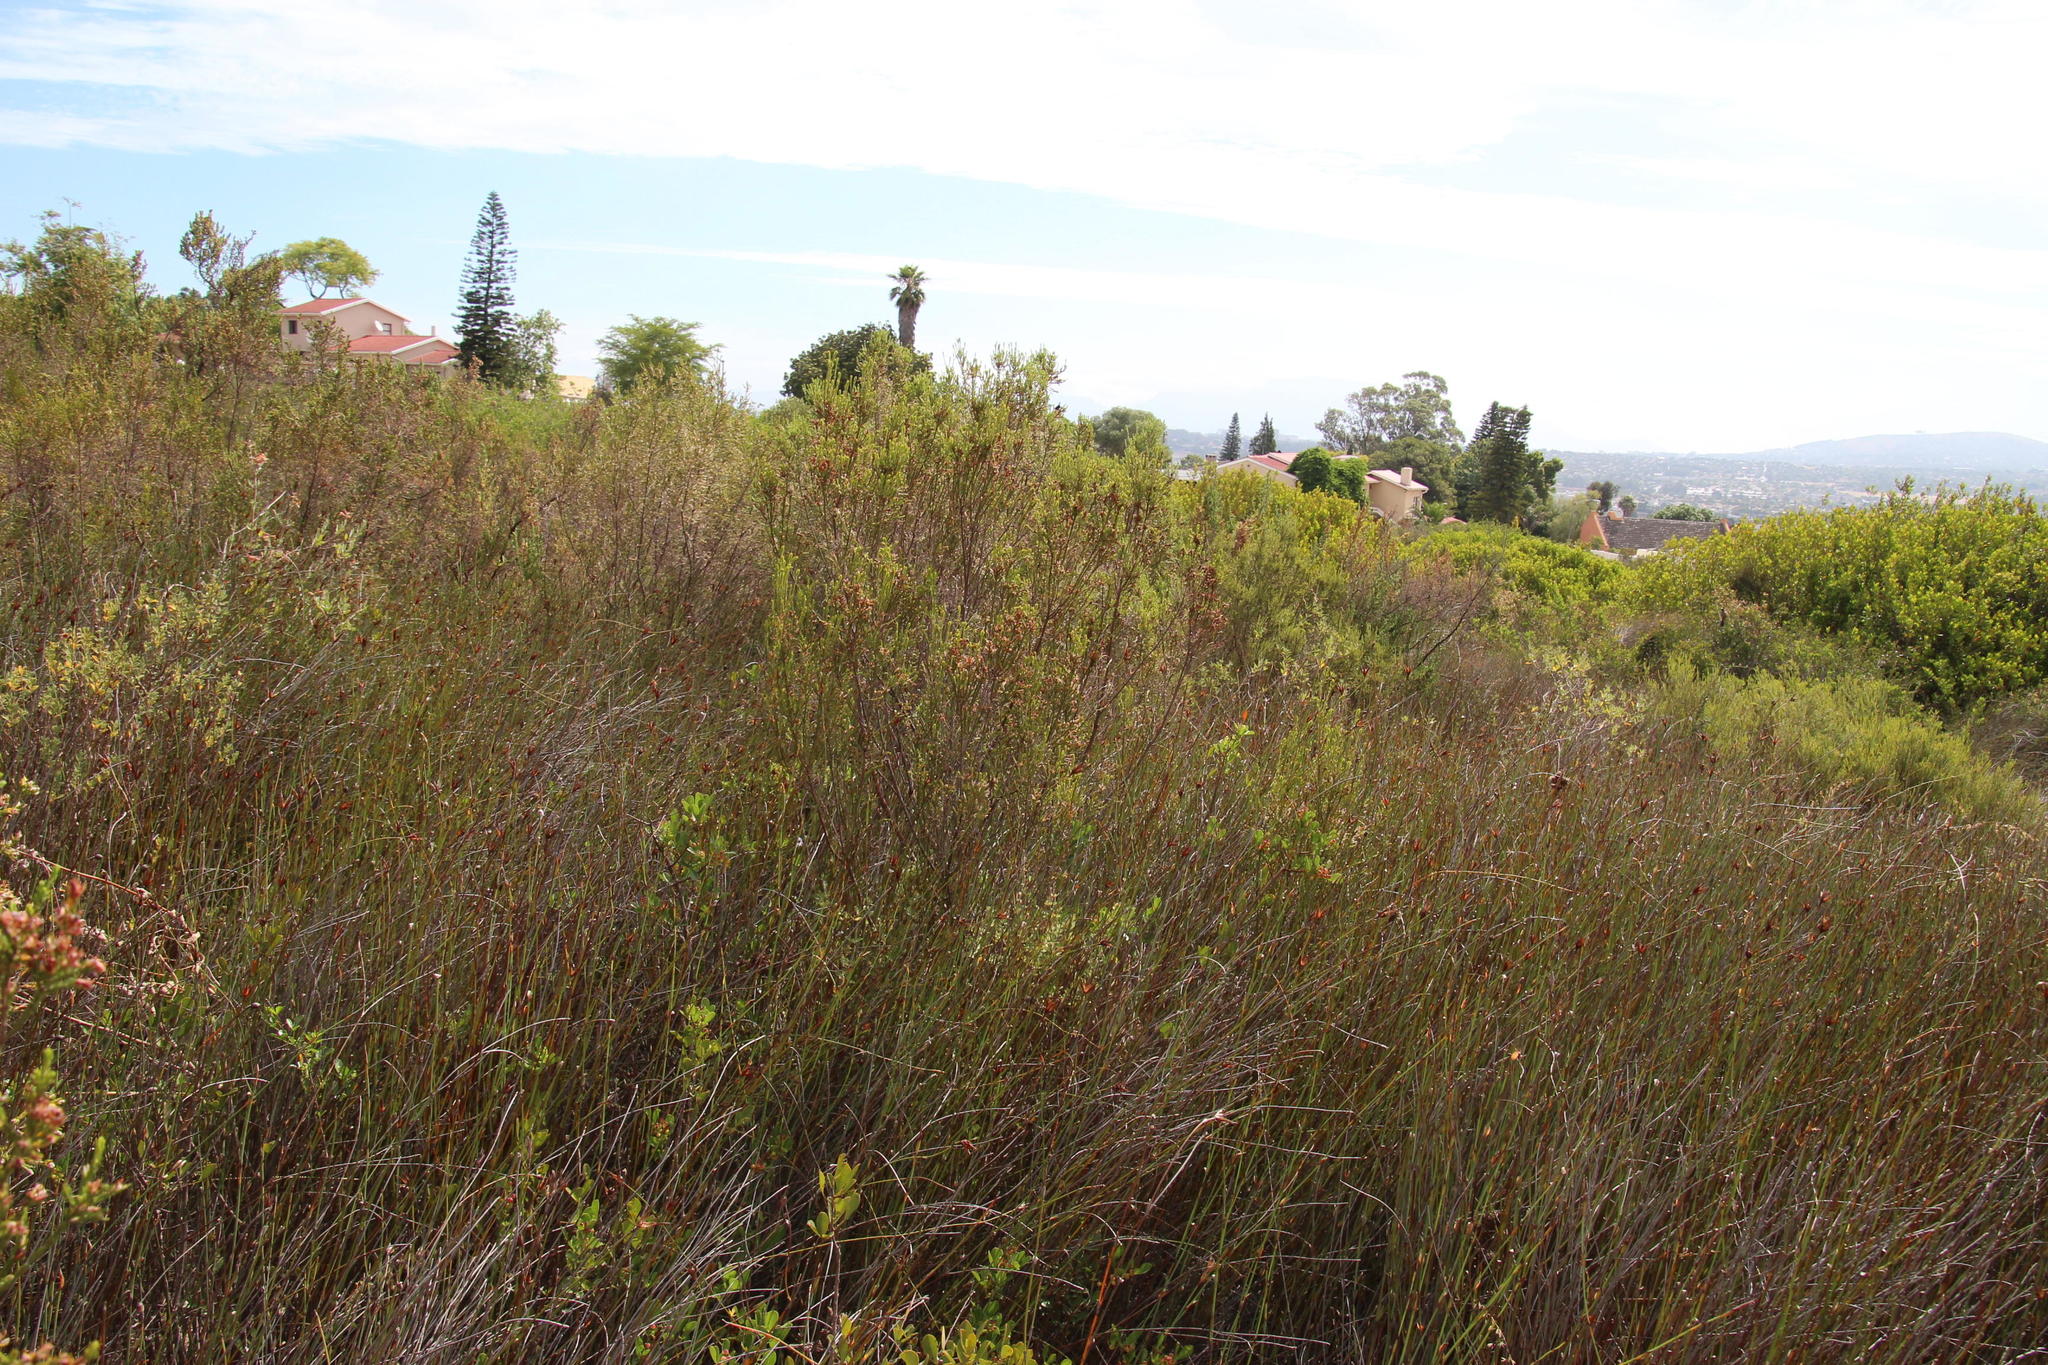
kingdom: Plantae
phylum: Tracheophyta
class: Magnoliopsida
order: Malvales
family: Thymelaeaceae
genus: Passerina
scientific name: Passerina corymbosa
